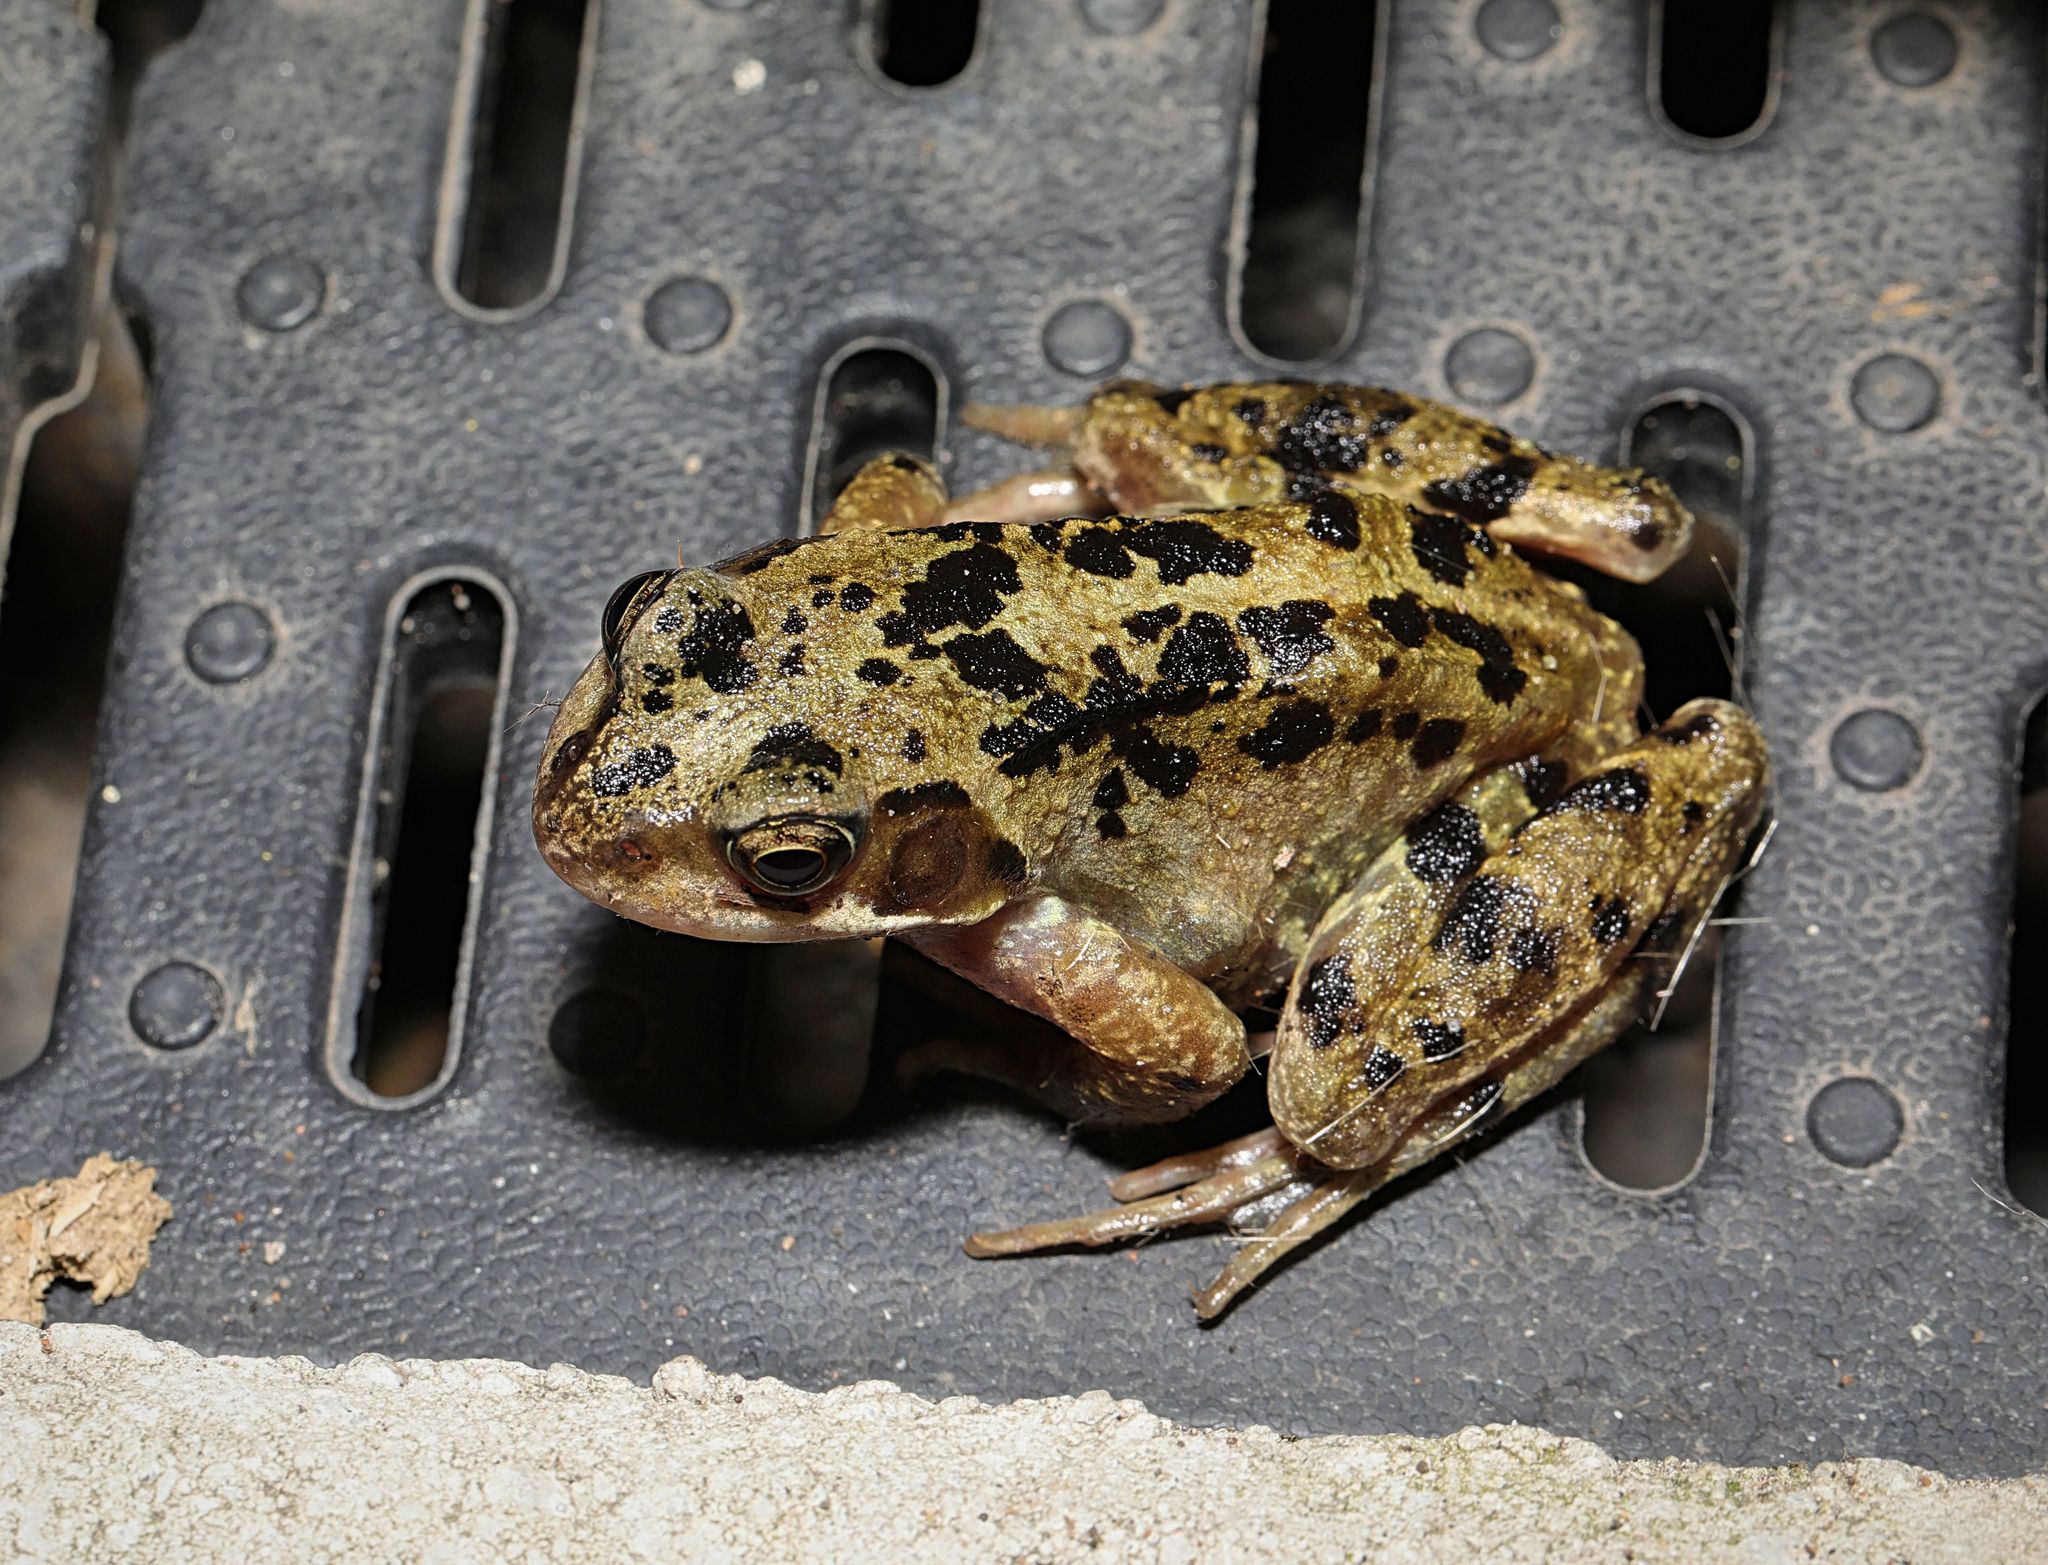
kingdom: Animalia
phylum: Chordata
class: Amphibia
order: Anura
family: Ranidae
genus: Rana
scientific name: Rana temporaria
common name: Common frog
